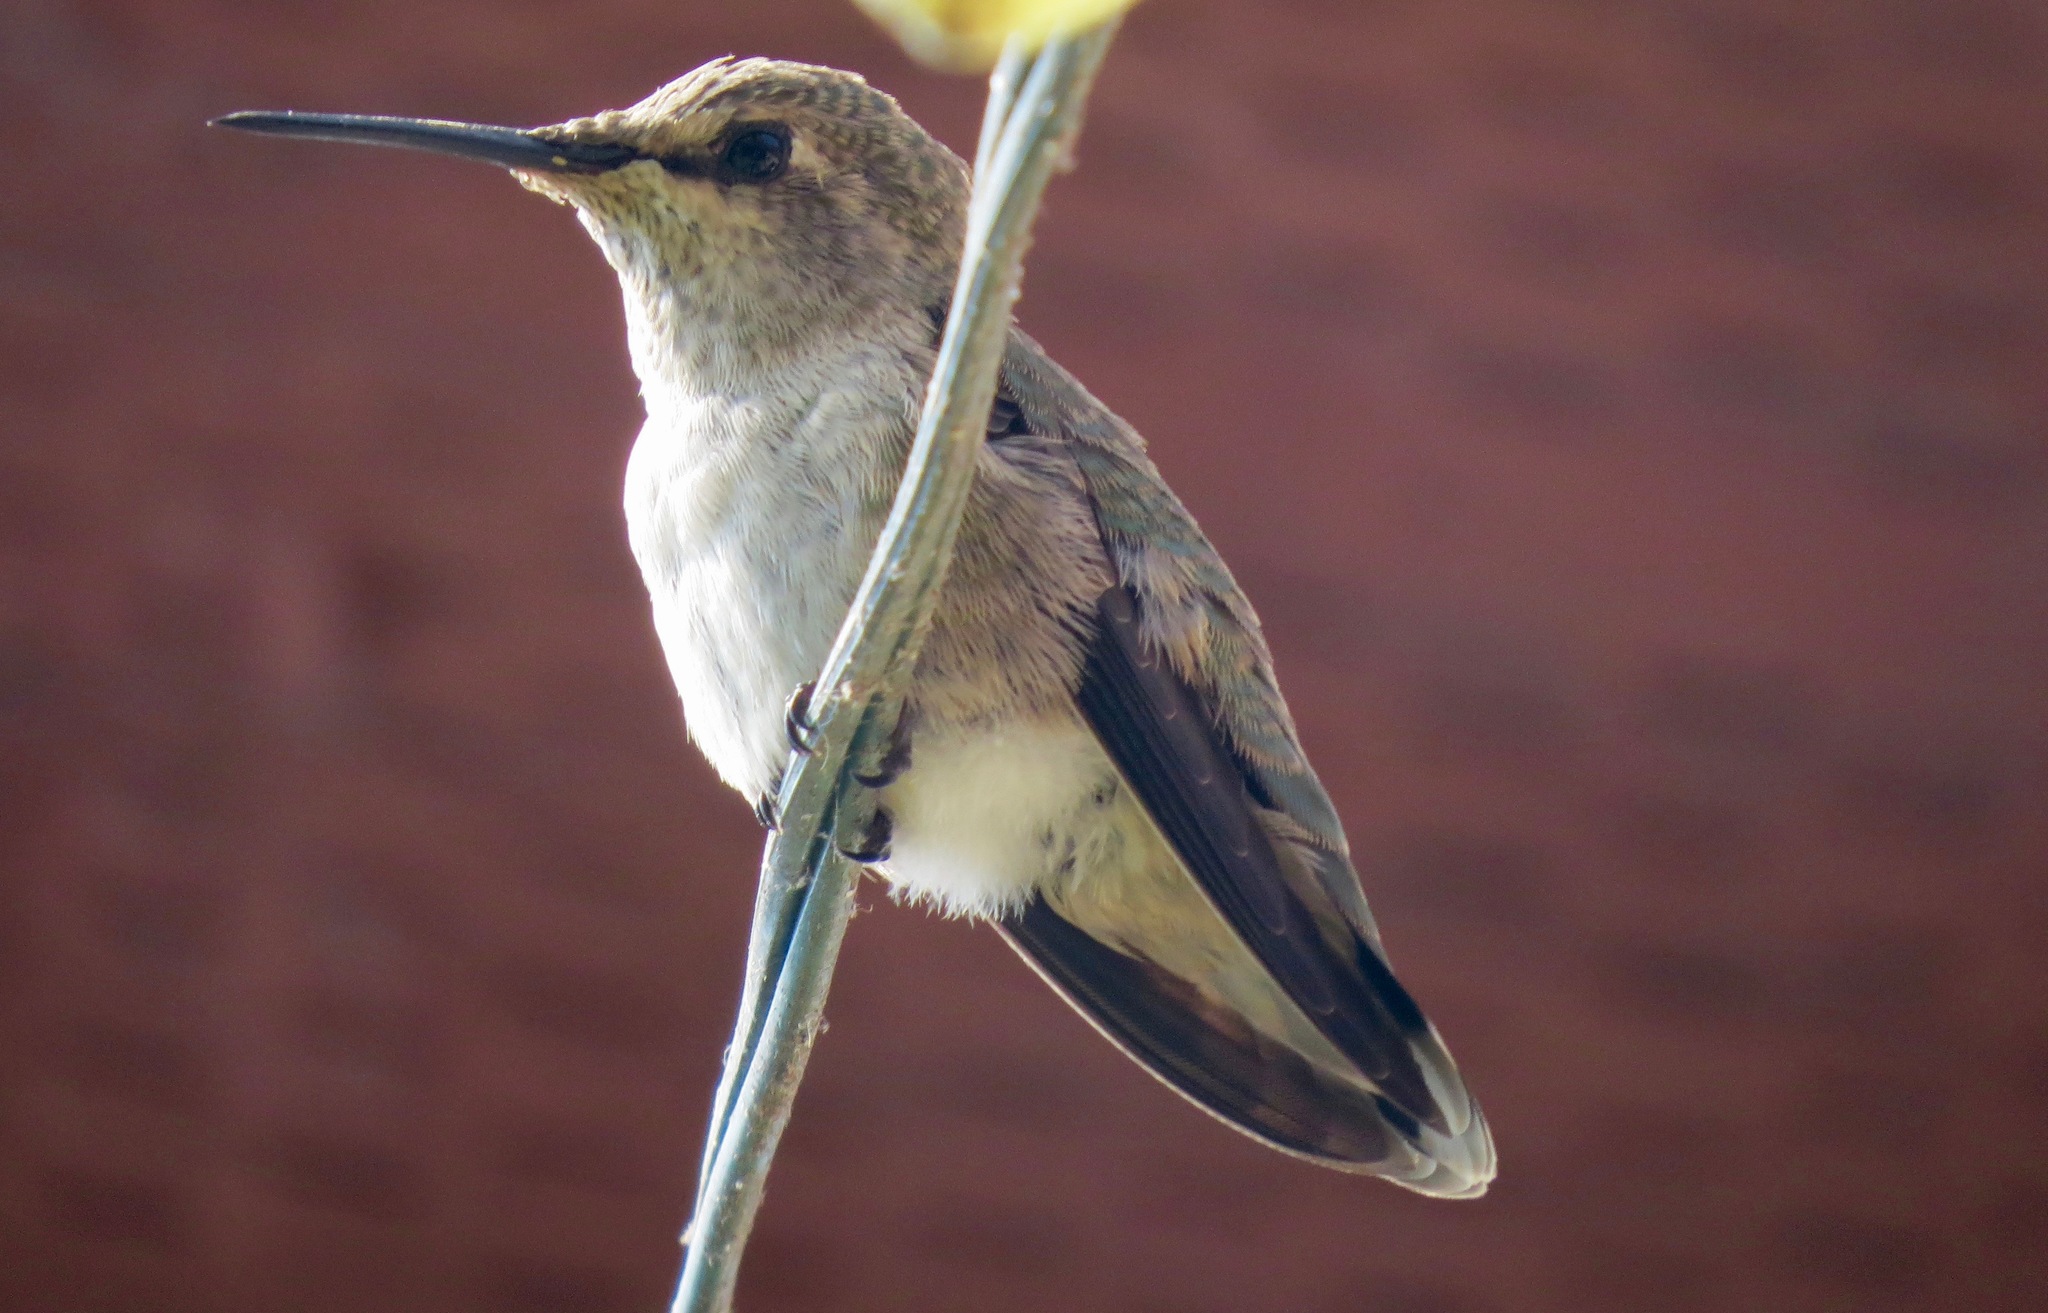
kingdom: Animalia
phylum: Chordata
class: Aves
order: Apodiformes
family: Trochilidae
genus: Calypte
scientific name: Calypte anna
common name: Anna's hummingbird
